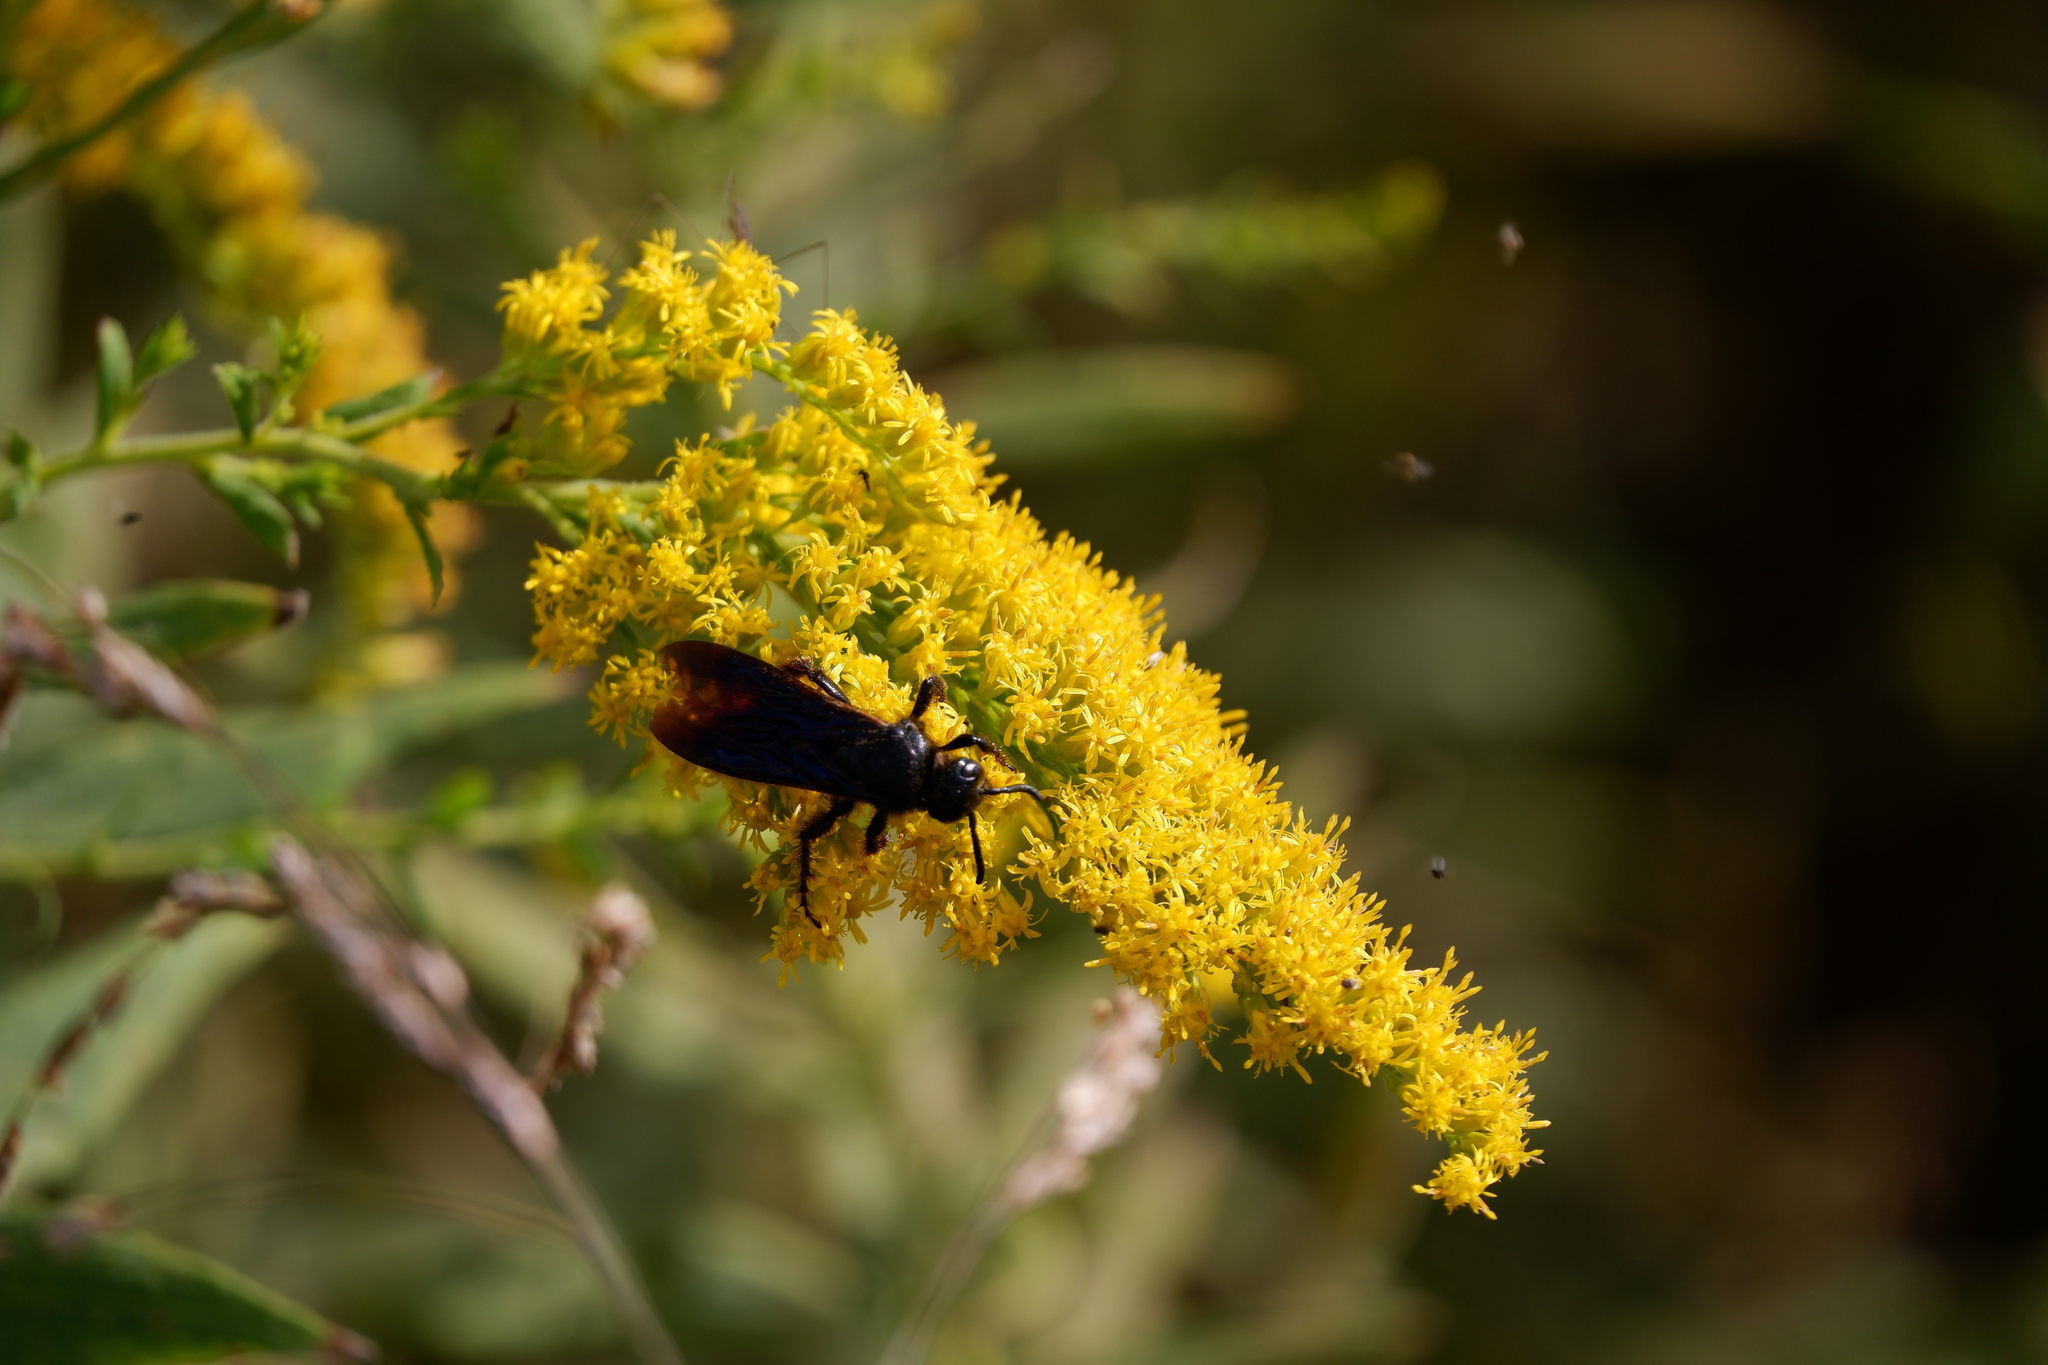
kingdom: Animalia
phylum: Arthropoda
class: Insecta
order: Hymenoptera
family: Scoliidae
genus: Scolia
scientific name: Scolia dubia
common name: Blue-winged scoliid wasp
